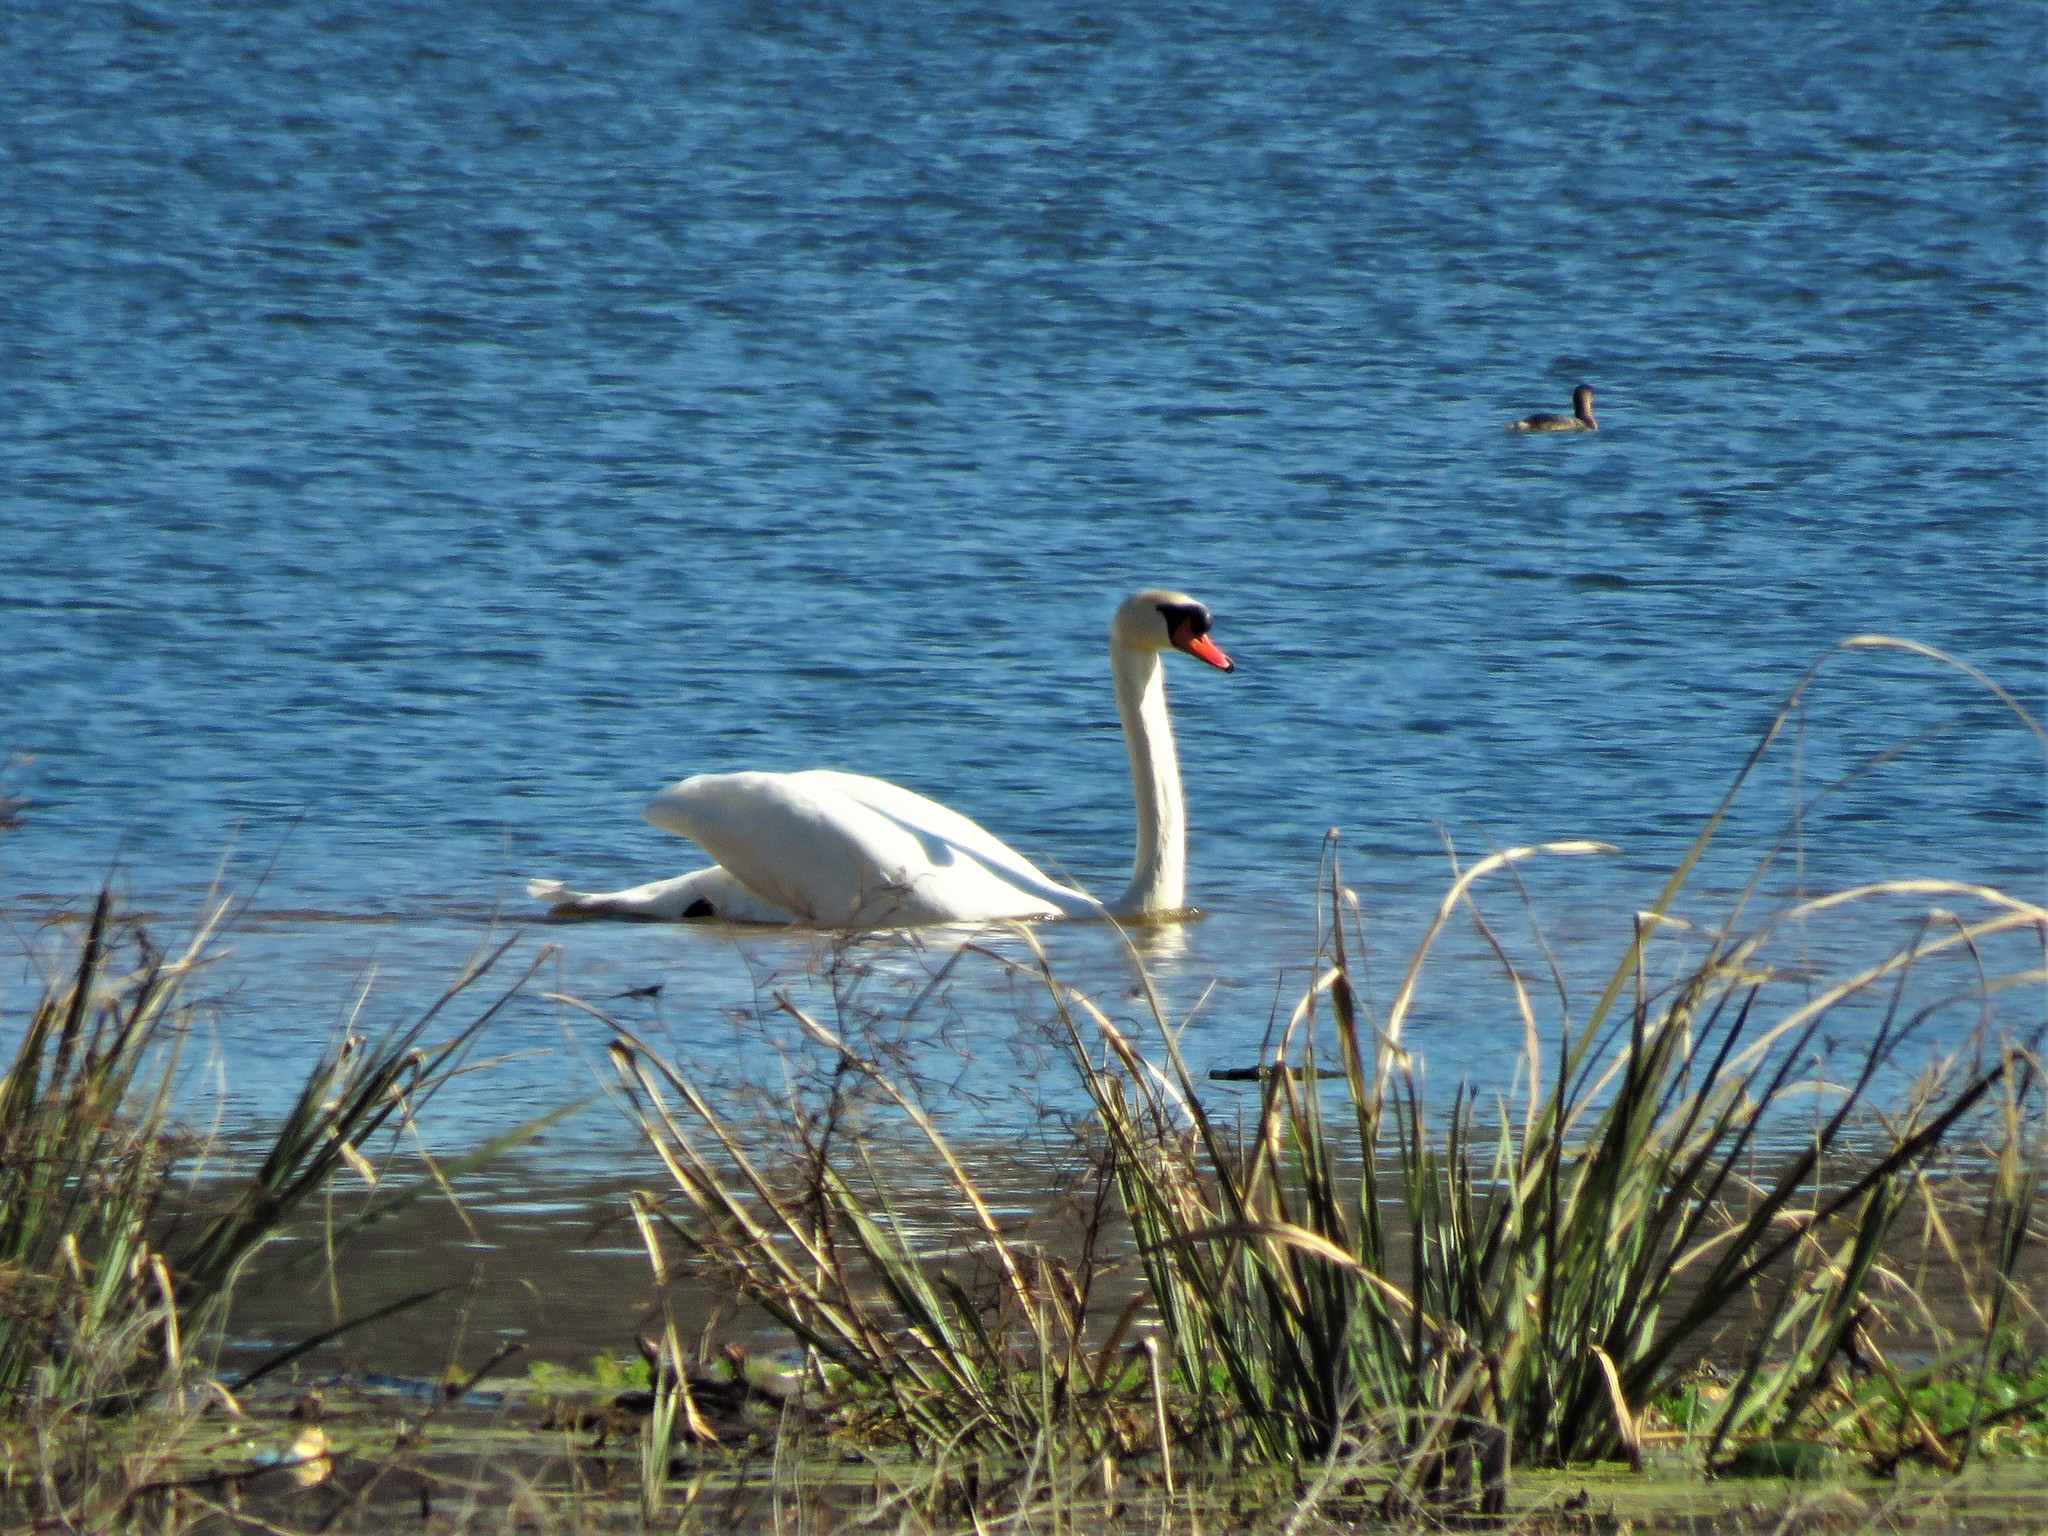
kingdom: Animalia
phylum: Chordata
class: Aves
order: Anseriformes
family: Anatidae
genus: Cygnus
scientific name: Cygnus olor
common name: Mute swan
